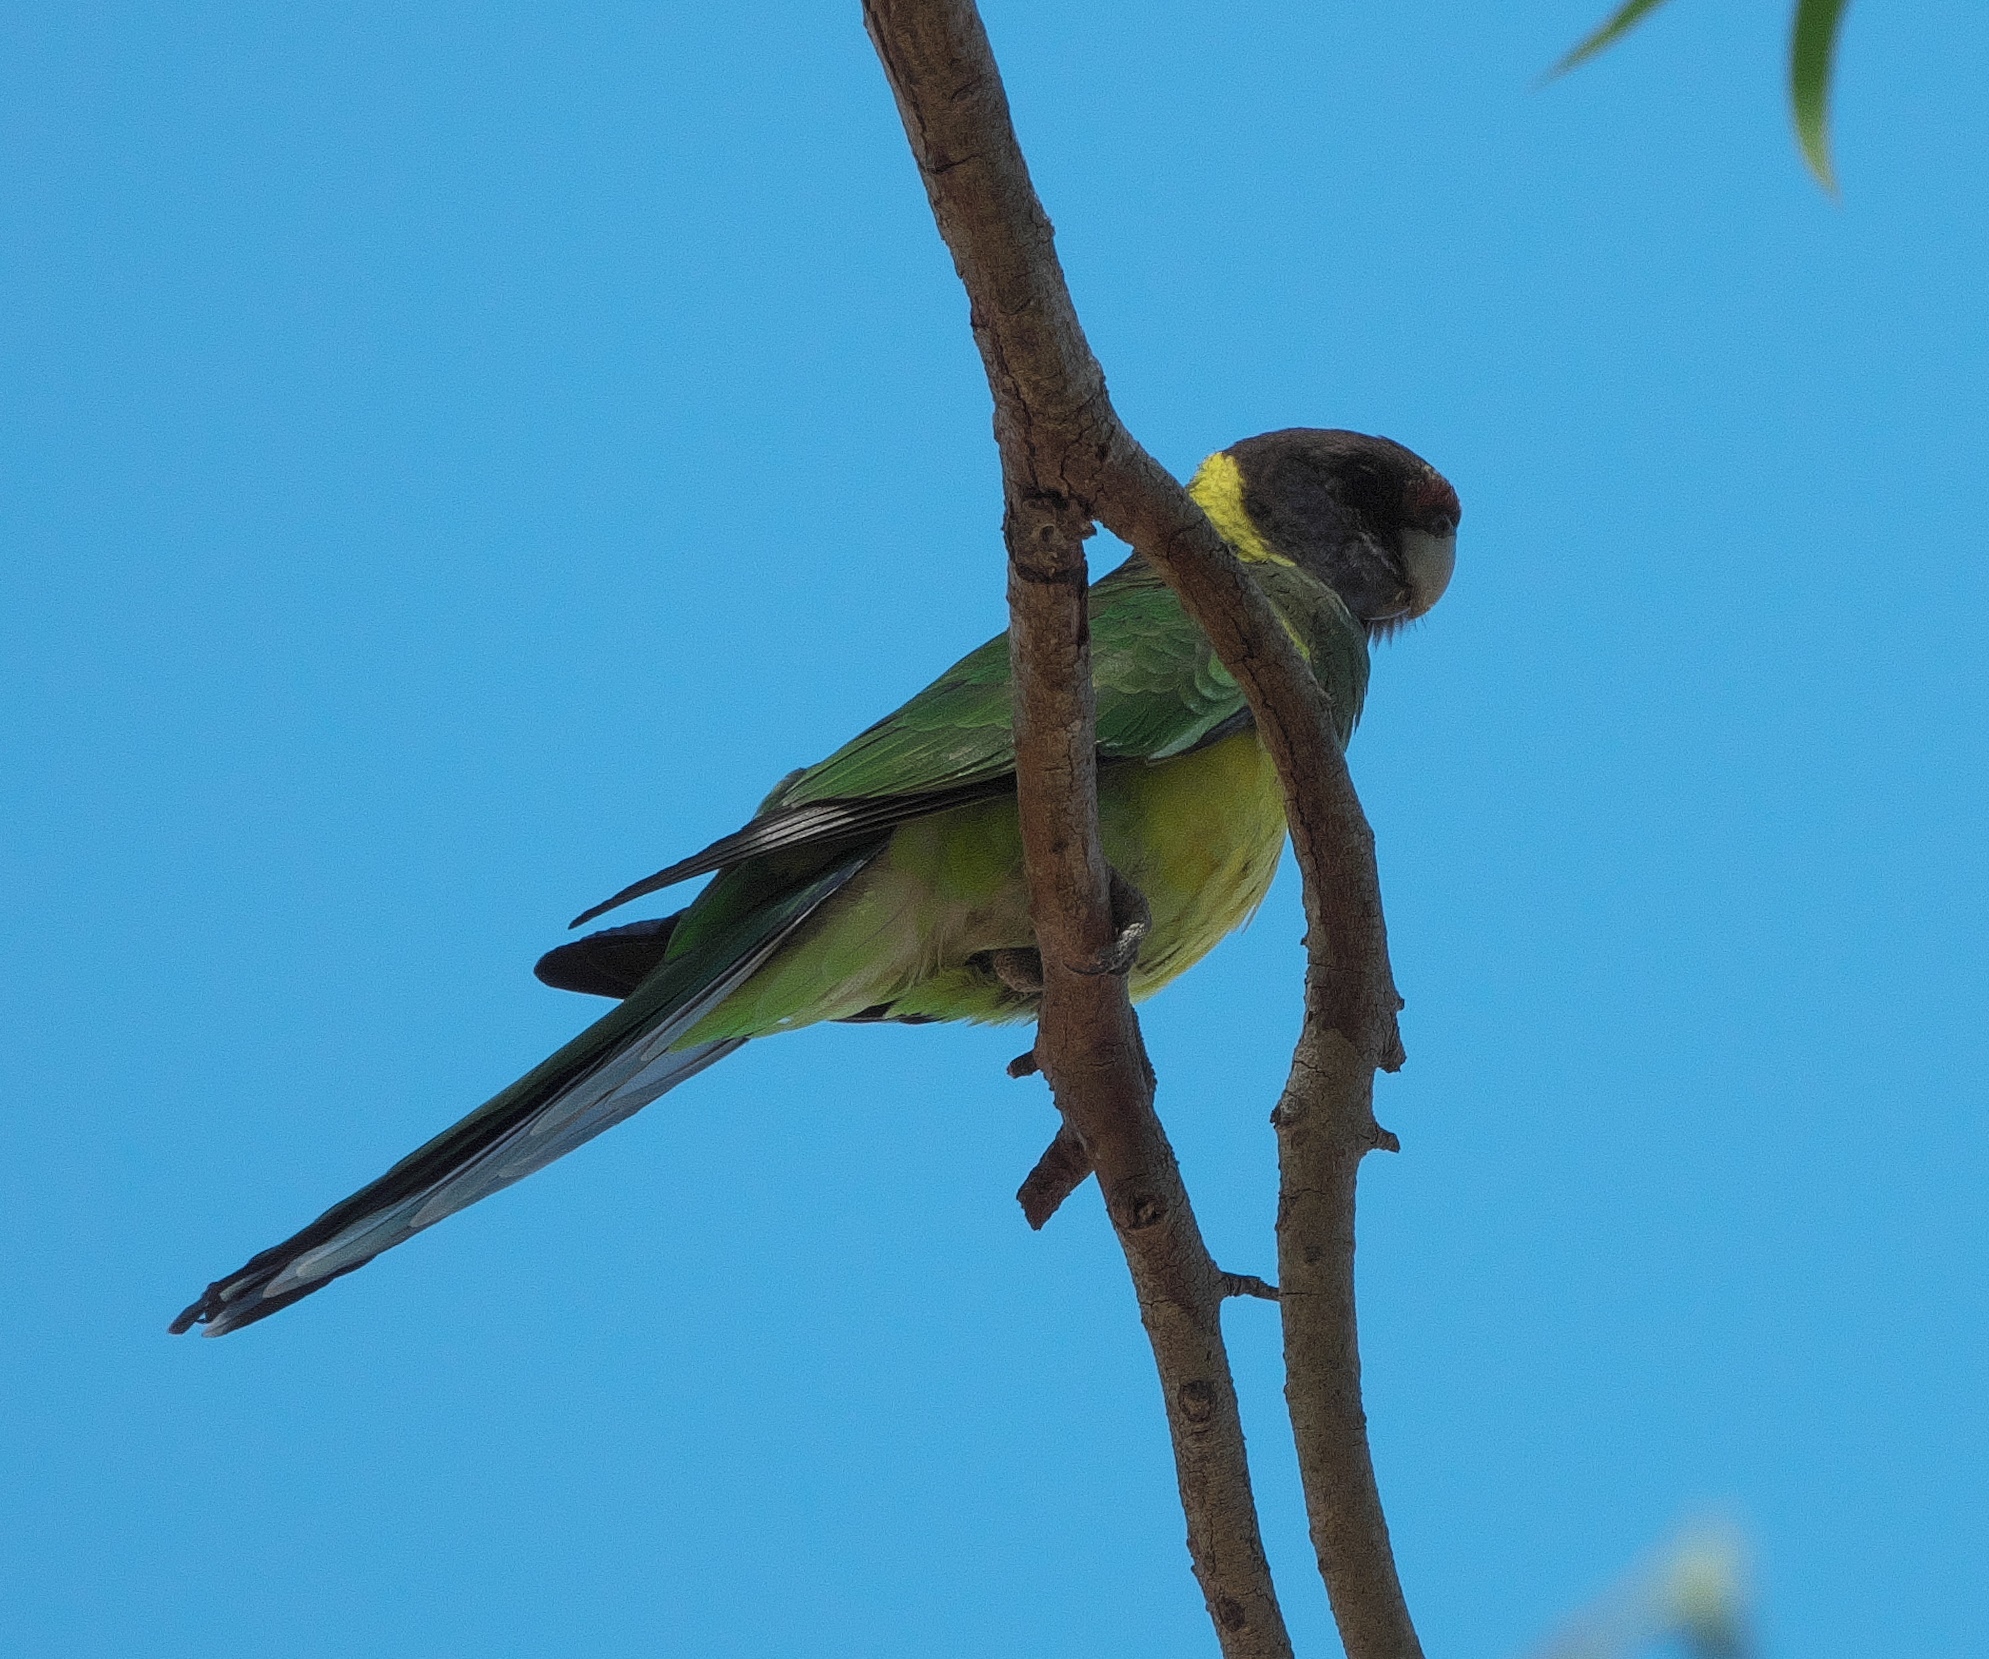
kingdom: Animalia
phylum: Chordata
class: Aves
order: Psittaciformes
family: Psittacidae
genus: Barnardius
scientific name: Barnardius zonarius
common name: Australian ringneck
